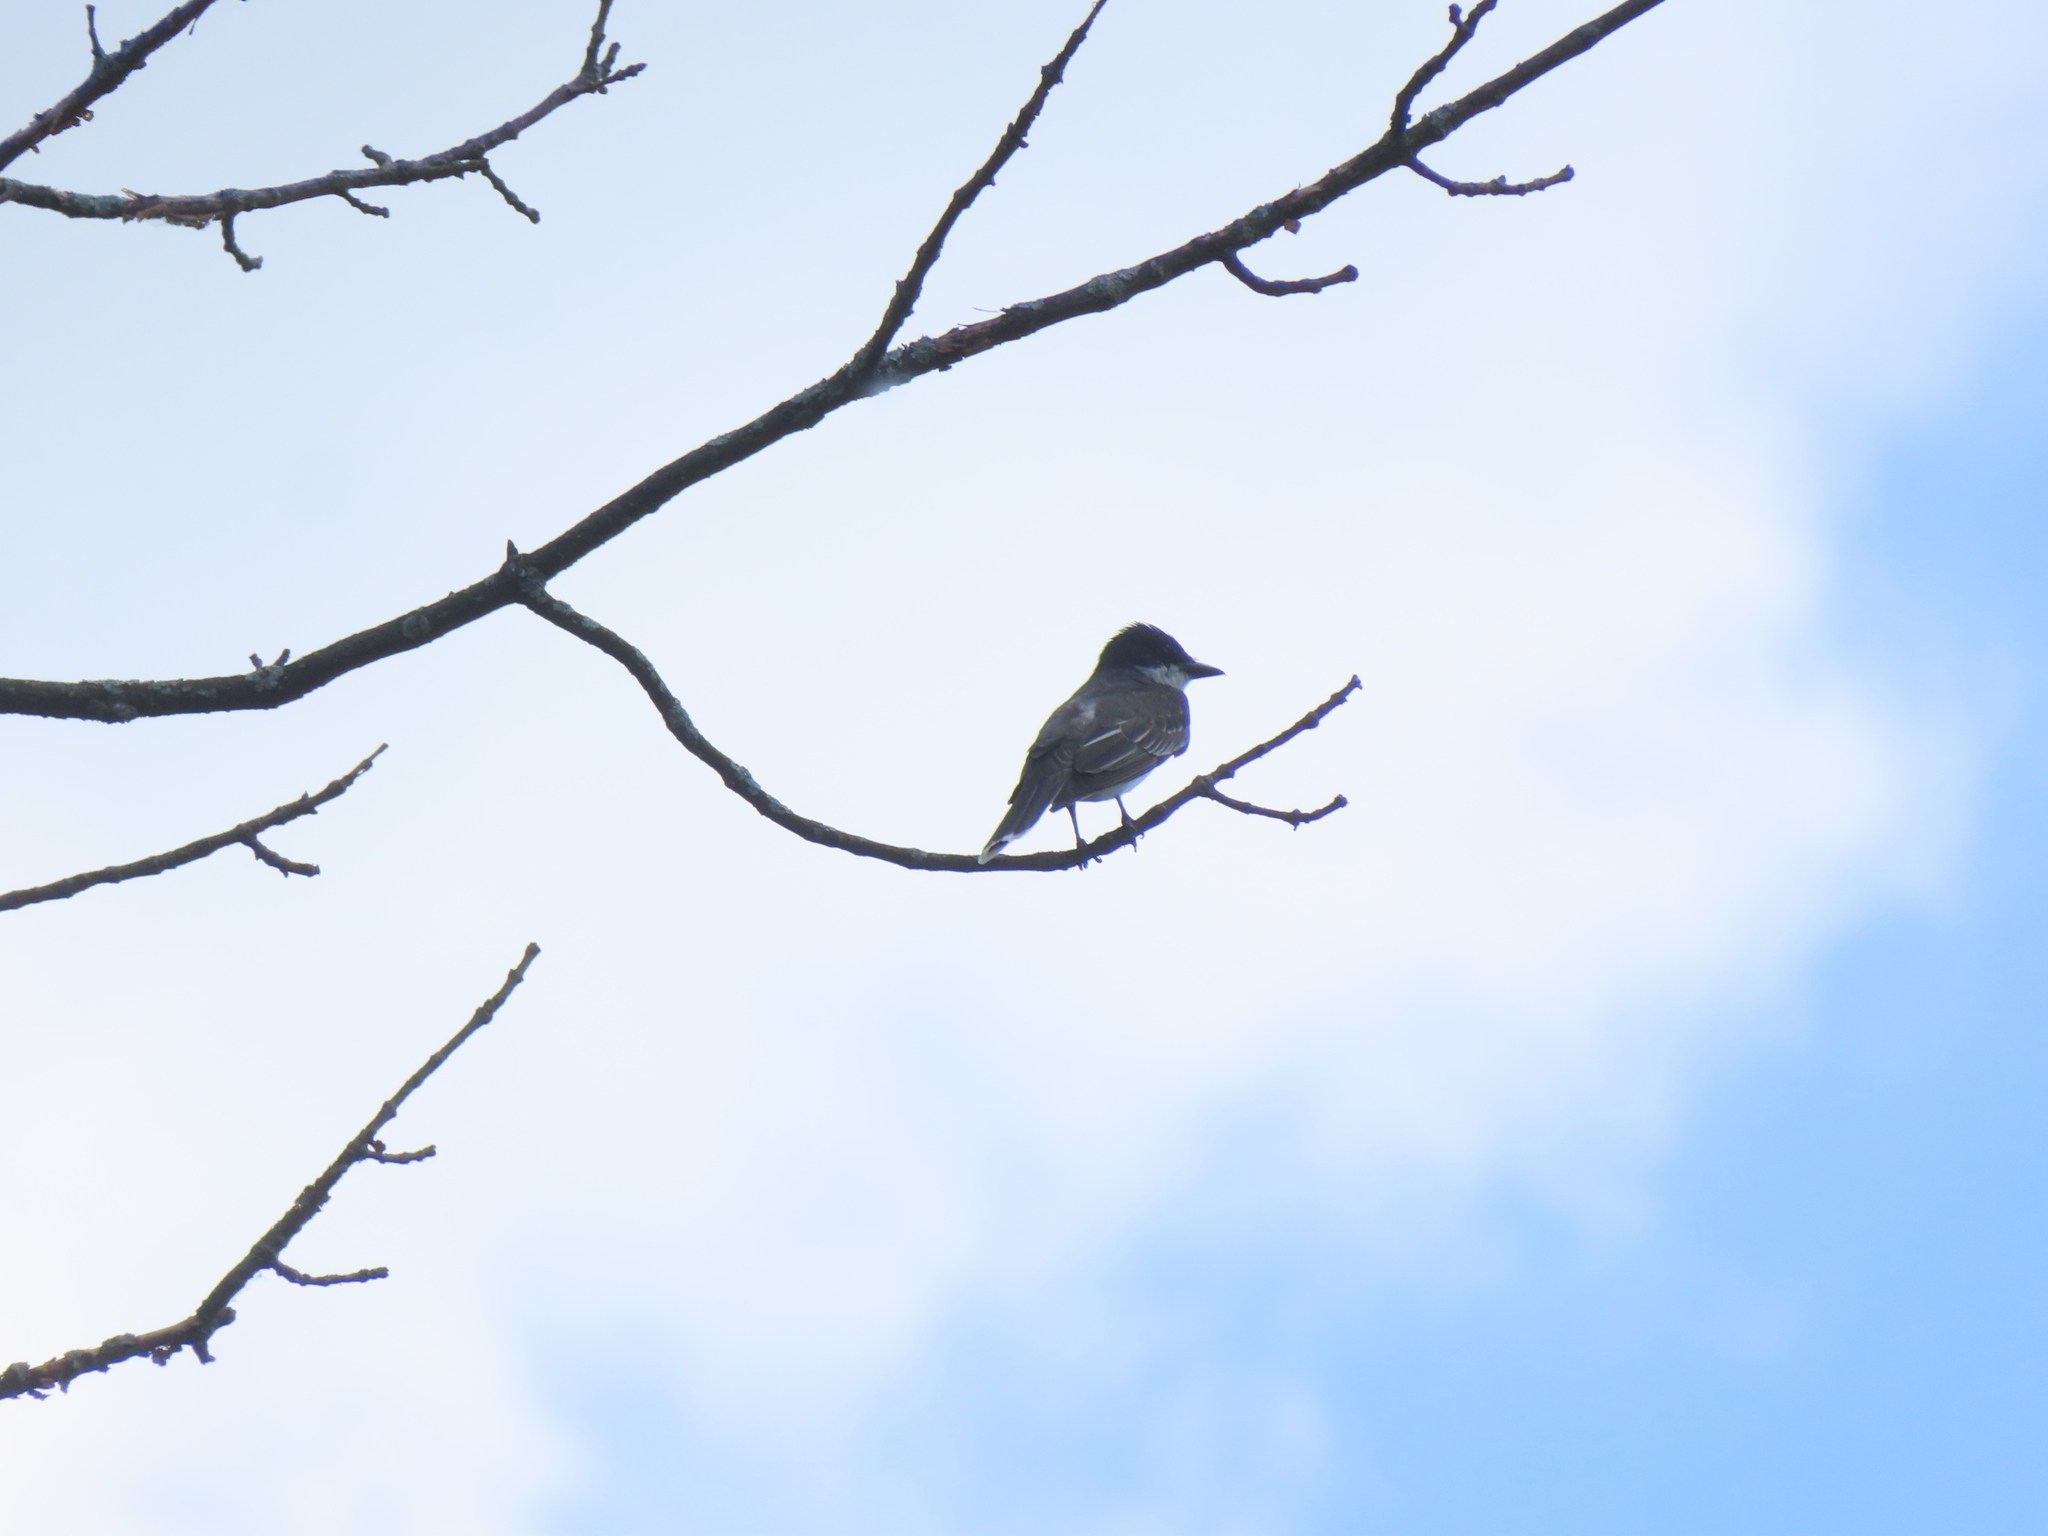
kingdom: Animalia
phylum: Chordata
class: Aves
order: Passeriformes
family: Tyrannidae
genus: Tyrannus
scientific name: Tyrannus tyrannus
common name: Eastern kingbird
